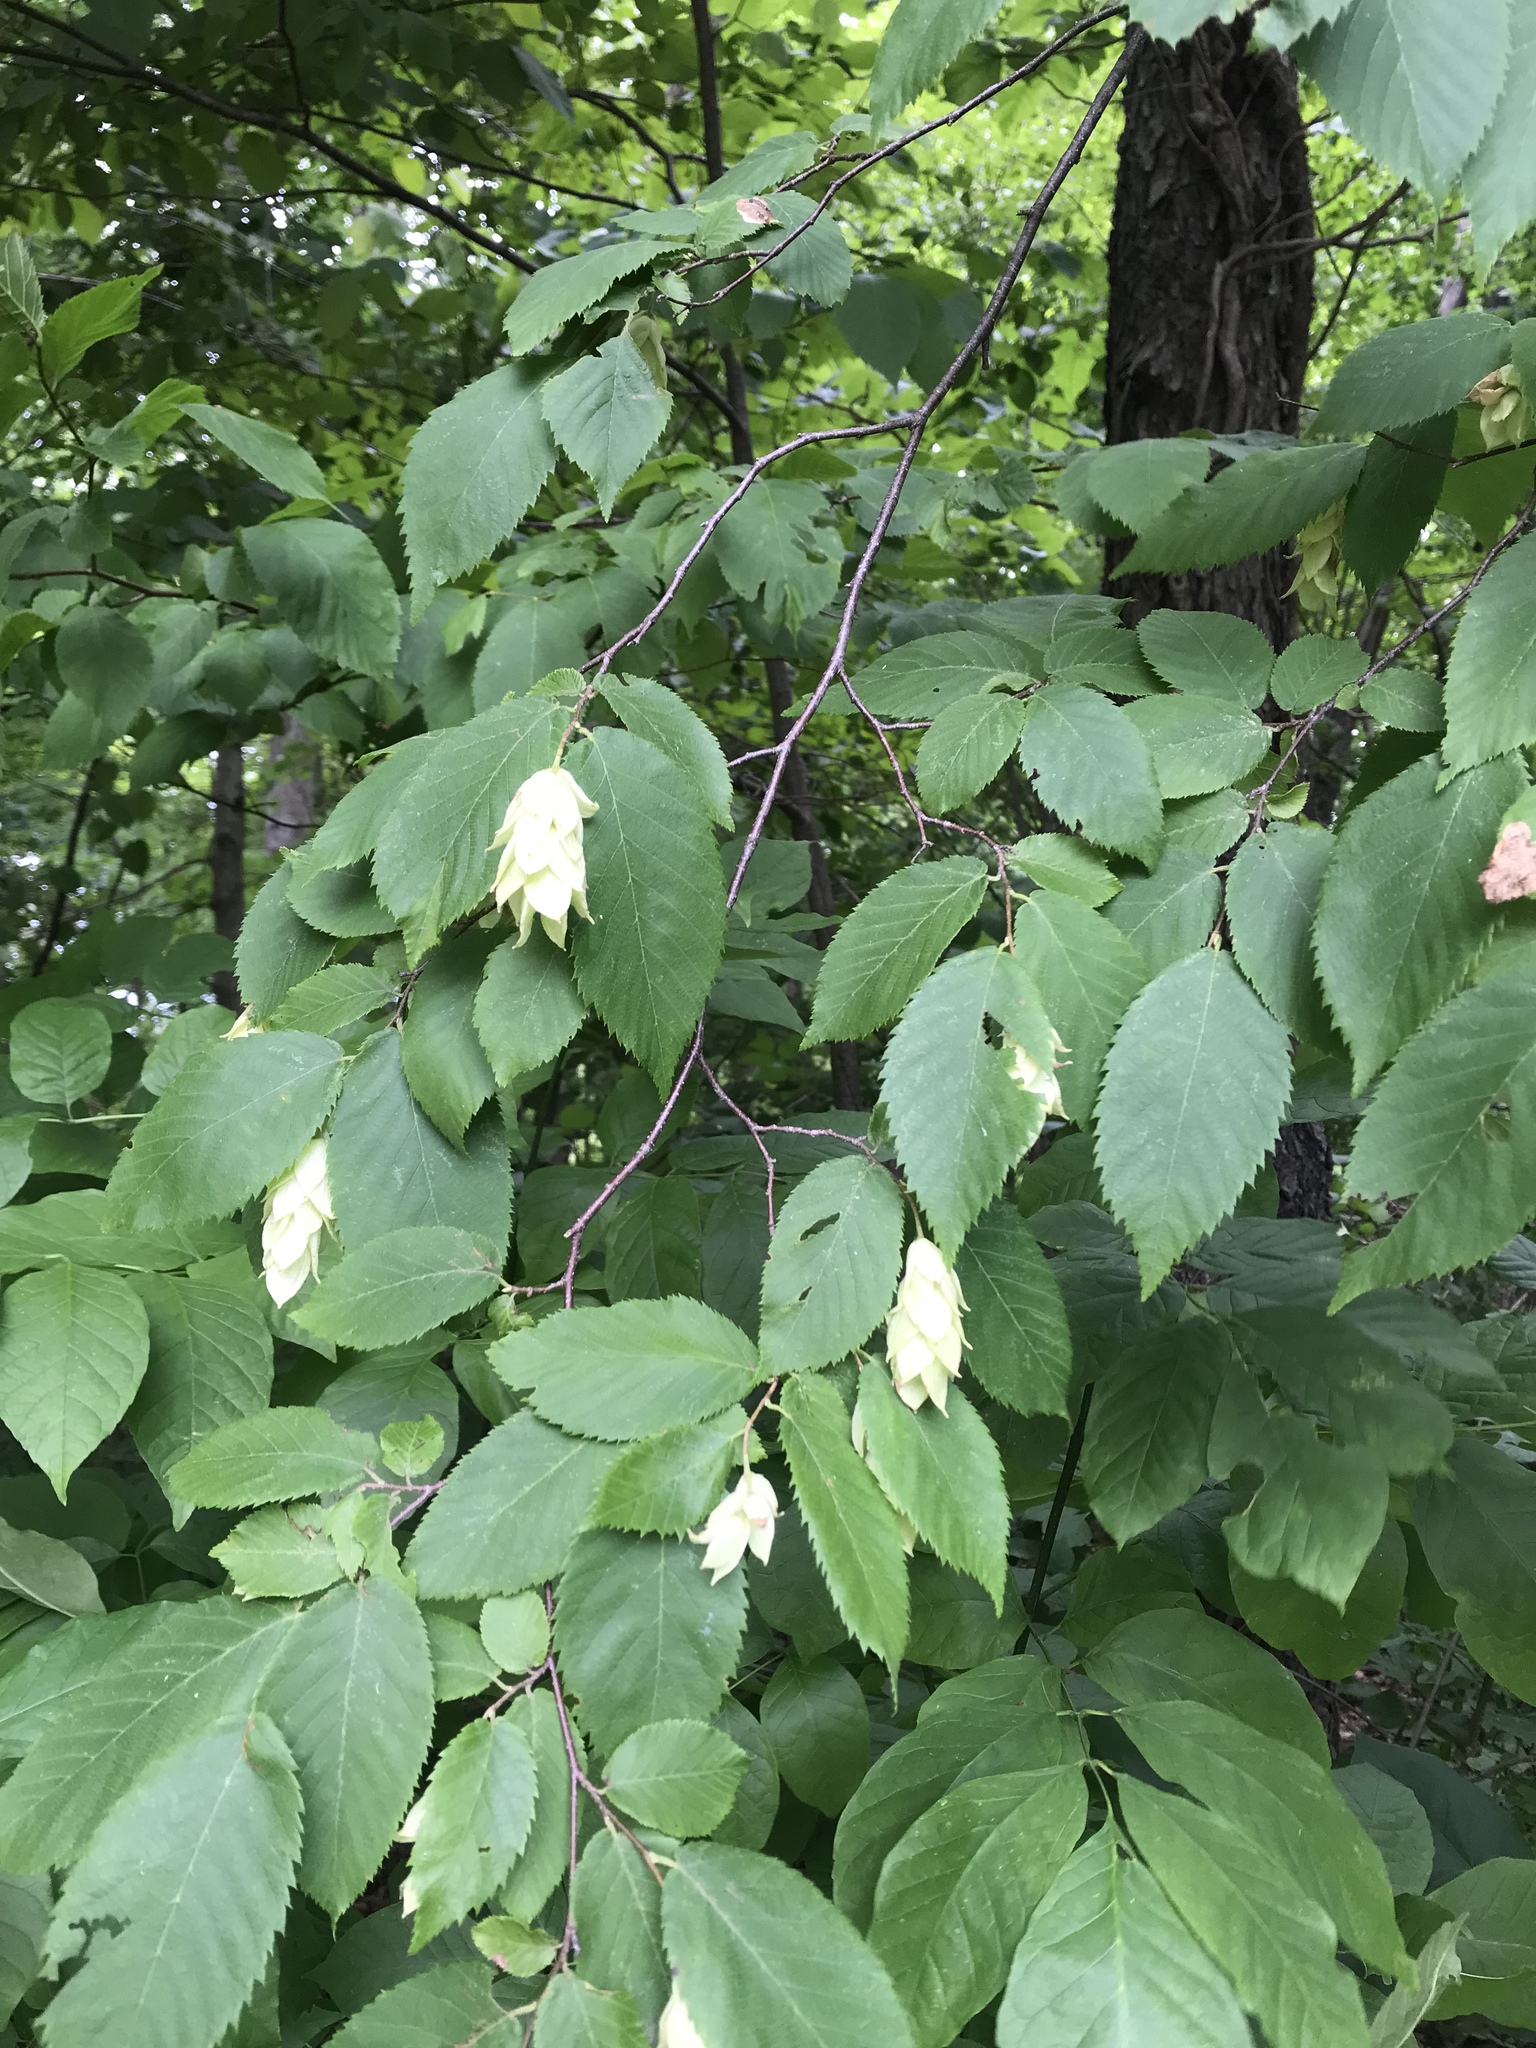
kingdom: Plantae
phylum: Tracheophyta
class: Magnoliopsida
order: Fagales
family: Betulaceae
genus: Ostrya
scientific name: Ostrya virginiana
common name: Ironwood
